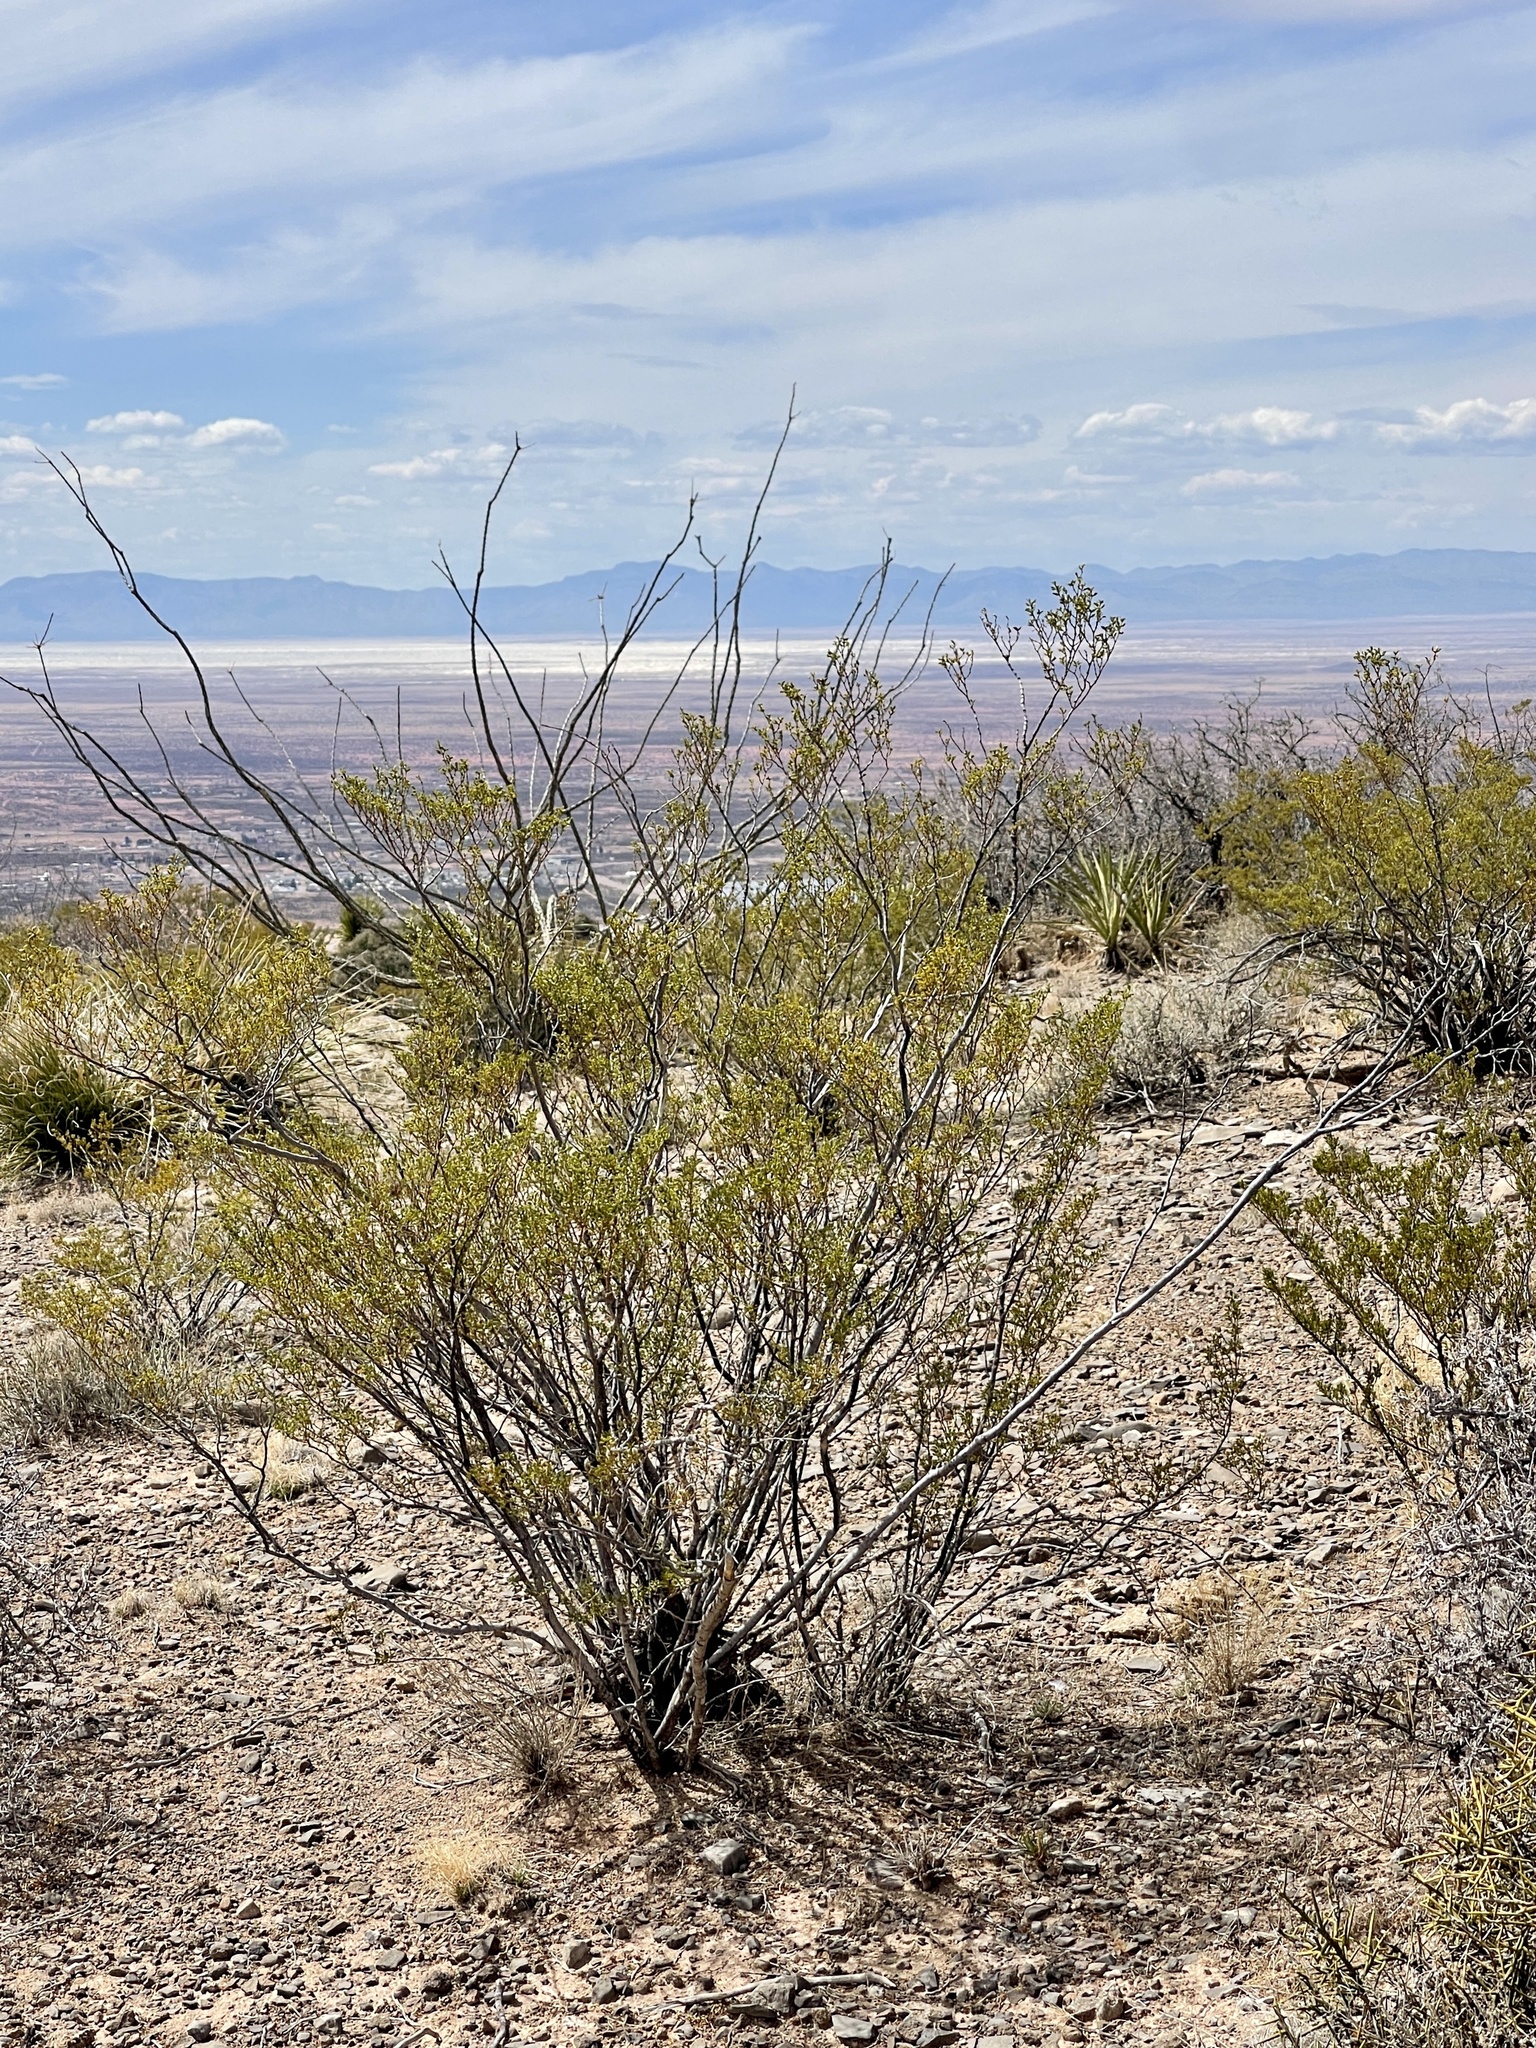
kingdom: Plantae
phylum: Tracheophyta
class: Magnoliopsida
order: Zygophyllales
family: Zygophyllaceae
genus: Larrea
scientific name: Larrea tridentata
